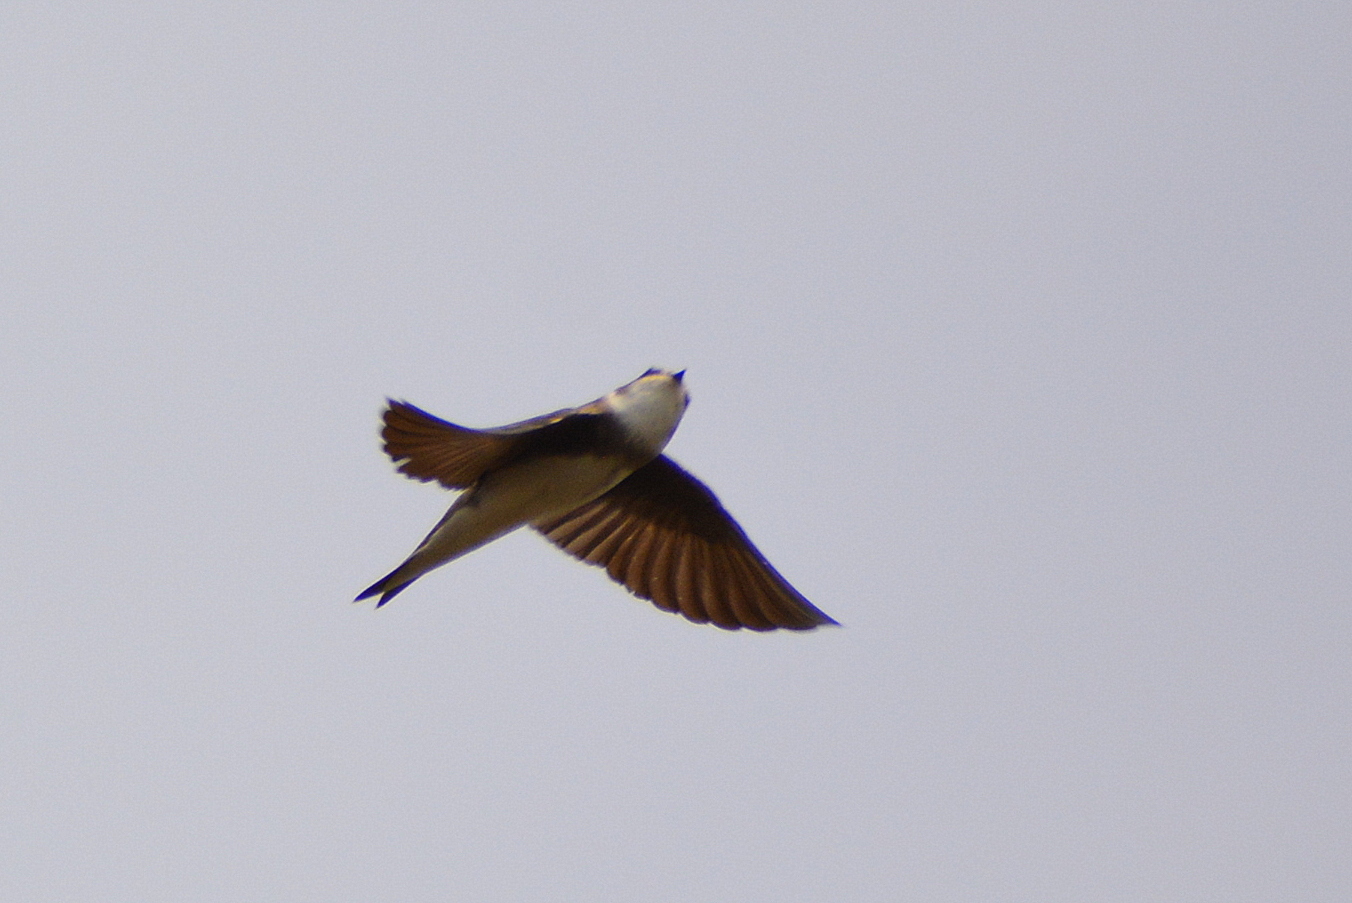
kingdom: Animalia
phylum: Chordata
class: Aves
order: Passeriformes
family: Hirundinidae
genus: Riparia
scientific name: Riparia riparia
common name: Sand martin
